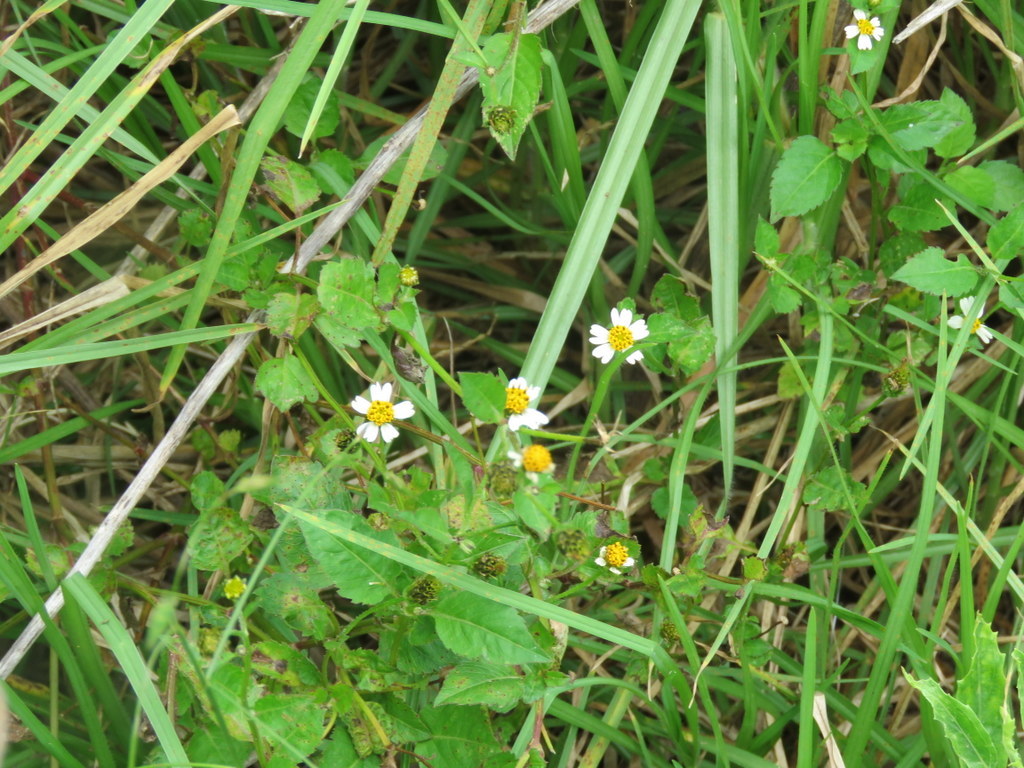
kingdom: Plantae
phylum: Tracheophyta
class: Magnoliopsida
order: Asterales
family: Asteraceae
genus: Bidens
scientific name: Bidens pilosa
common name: Black-jack
